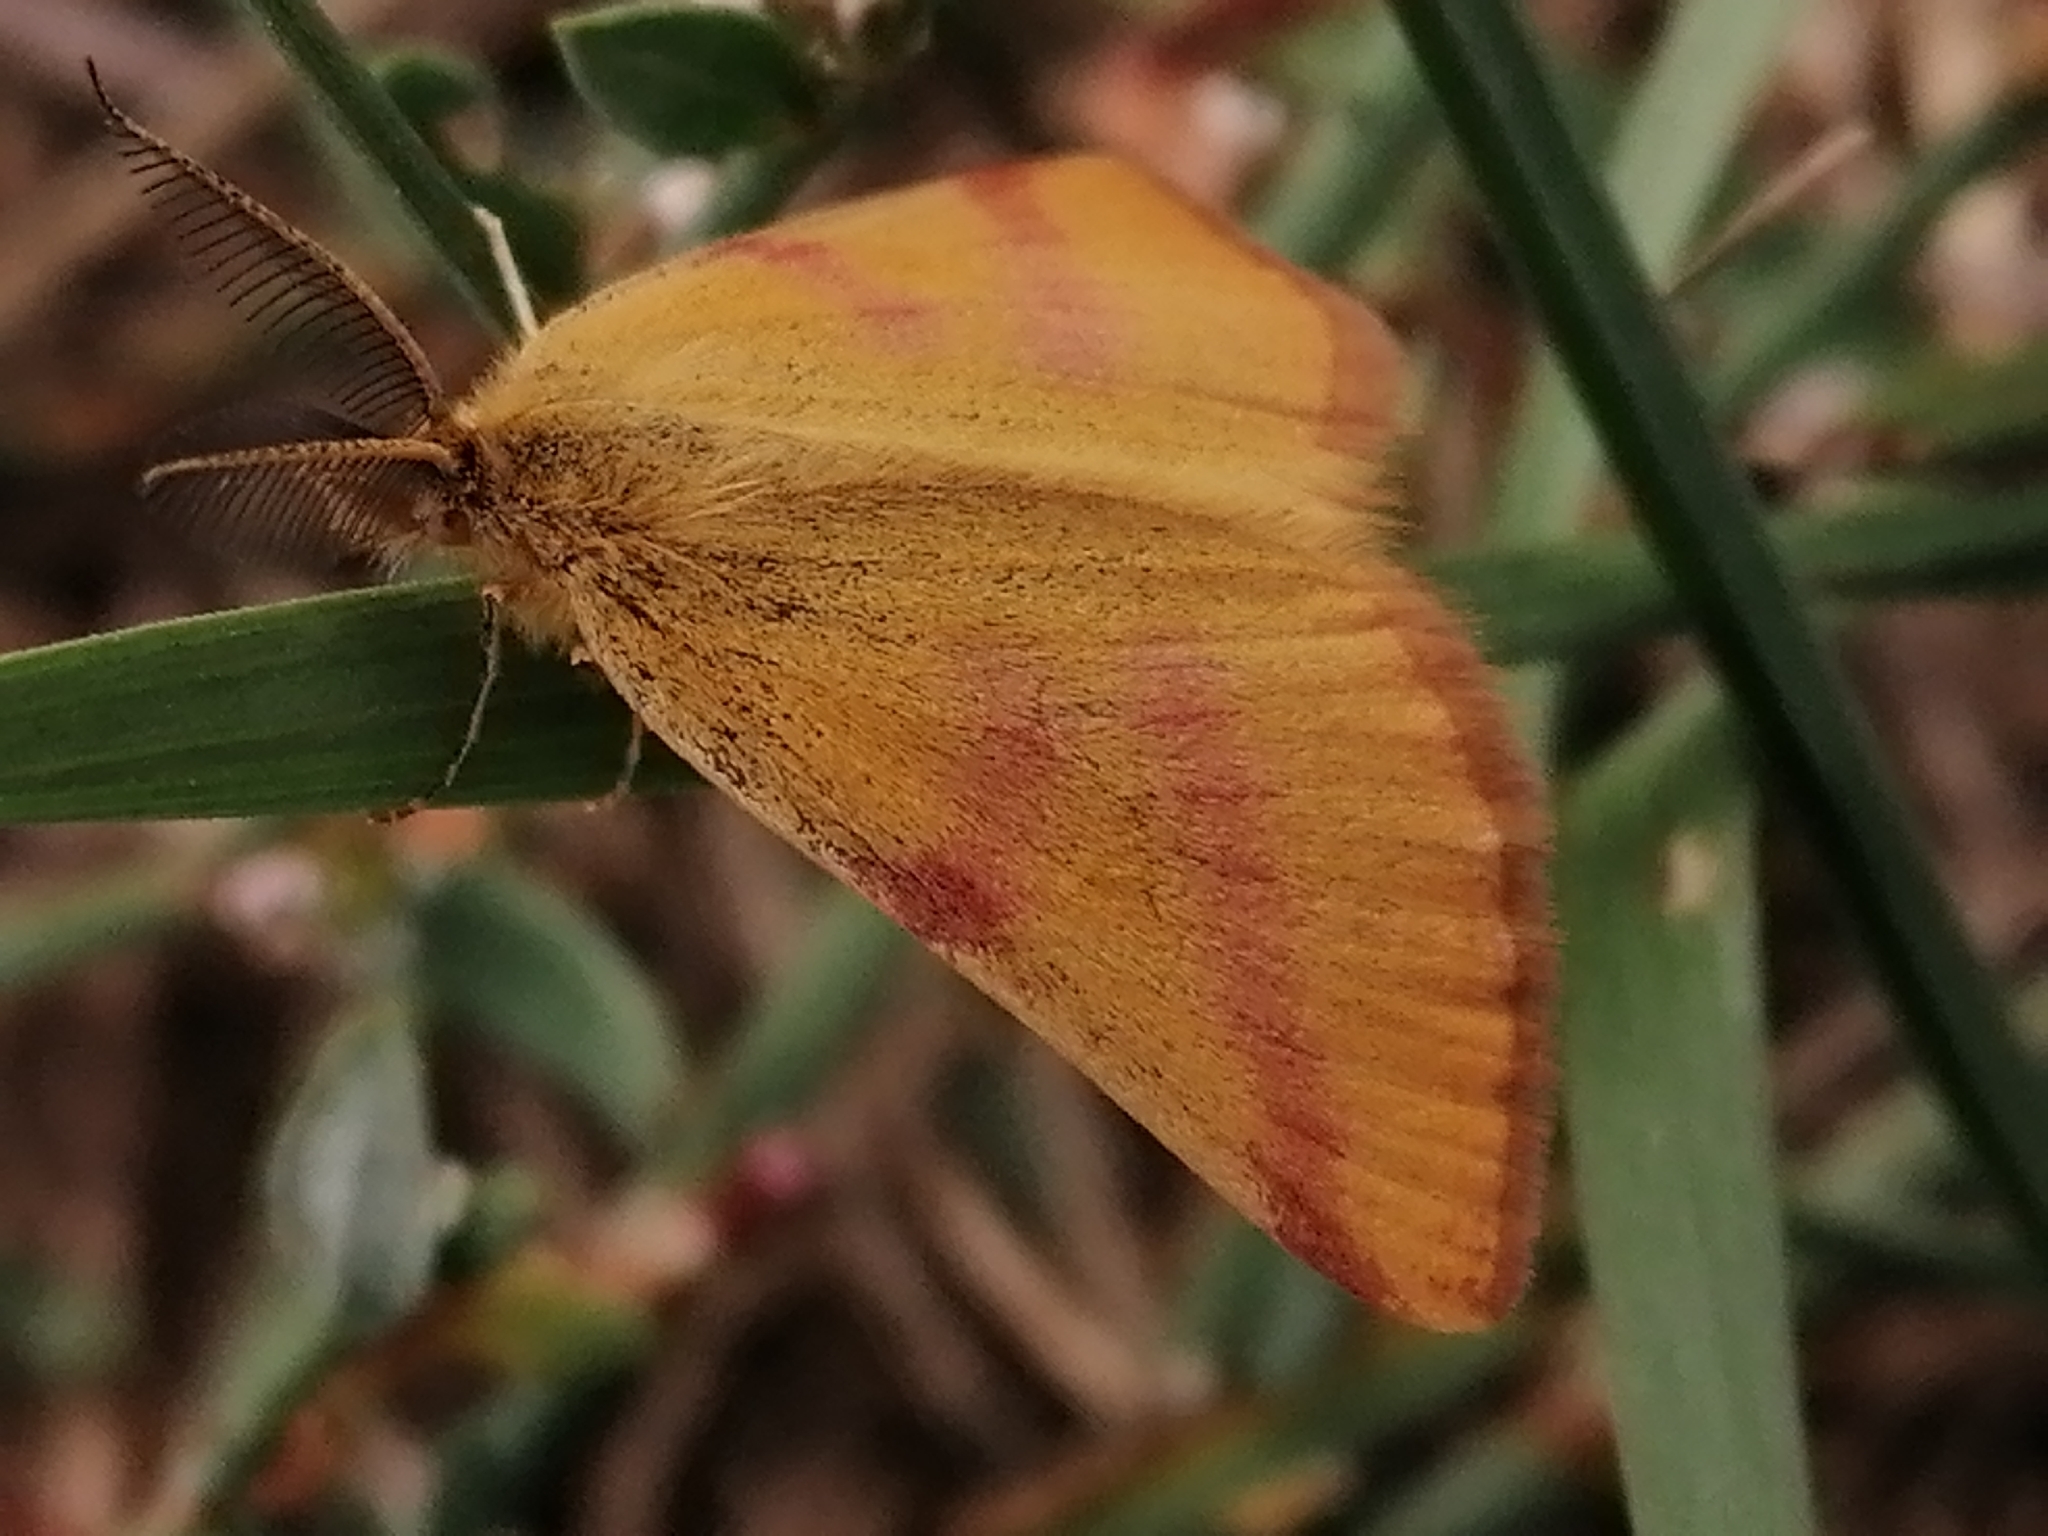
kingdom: Animalia
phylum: Arthropoda
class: Insecta
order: Lepidoptera
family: Geometridae
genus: Lythria
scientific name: Lythria purpuraria
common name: Purple-barred yellow
